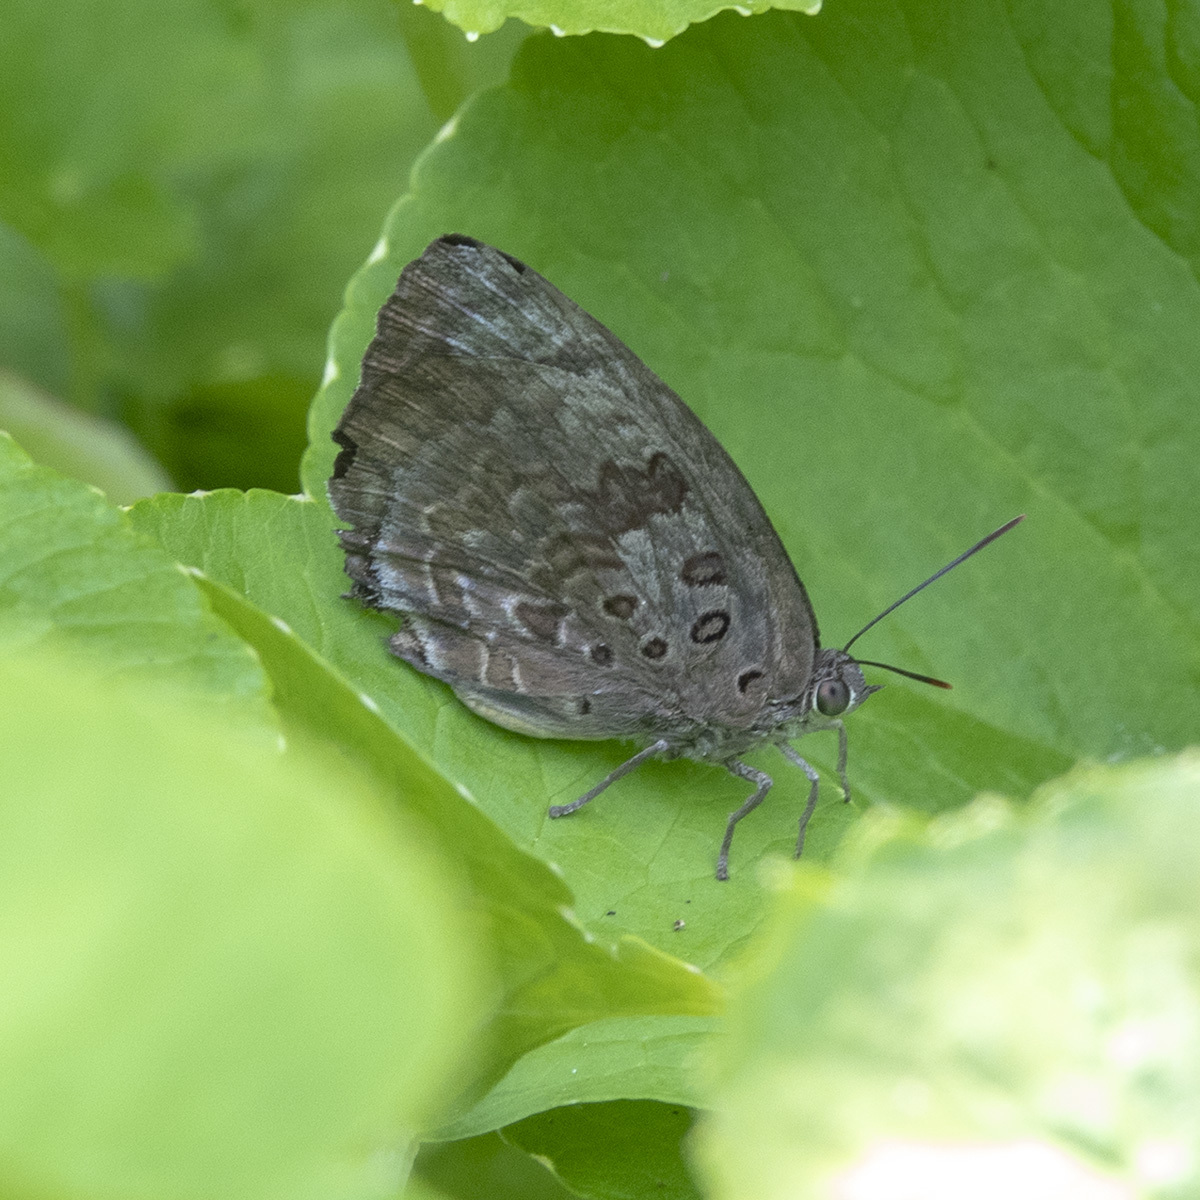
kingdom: Animalia
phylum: Arthropoda
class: Insecta
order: Lepidoptera
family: Lycaenidae
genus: Arhopala
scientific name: Arhopala amantes
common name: Large oakblue
